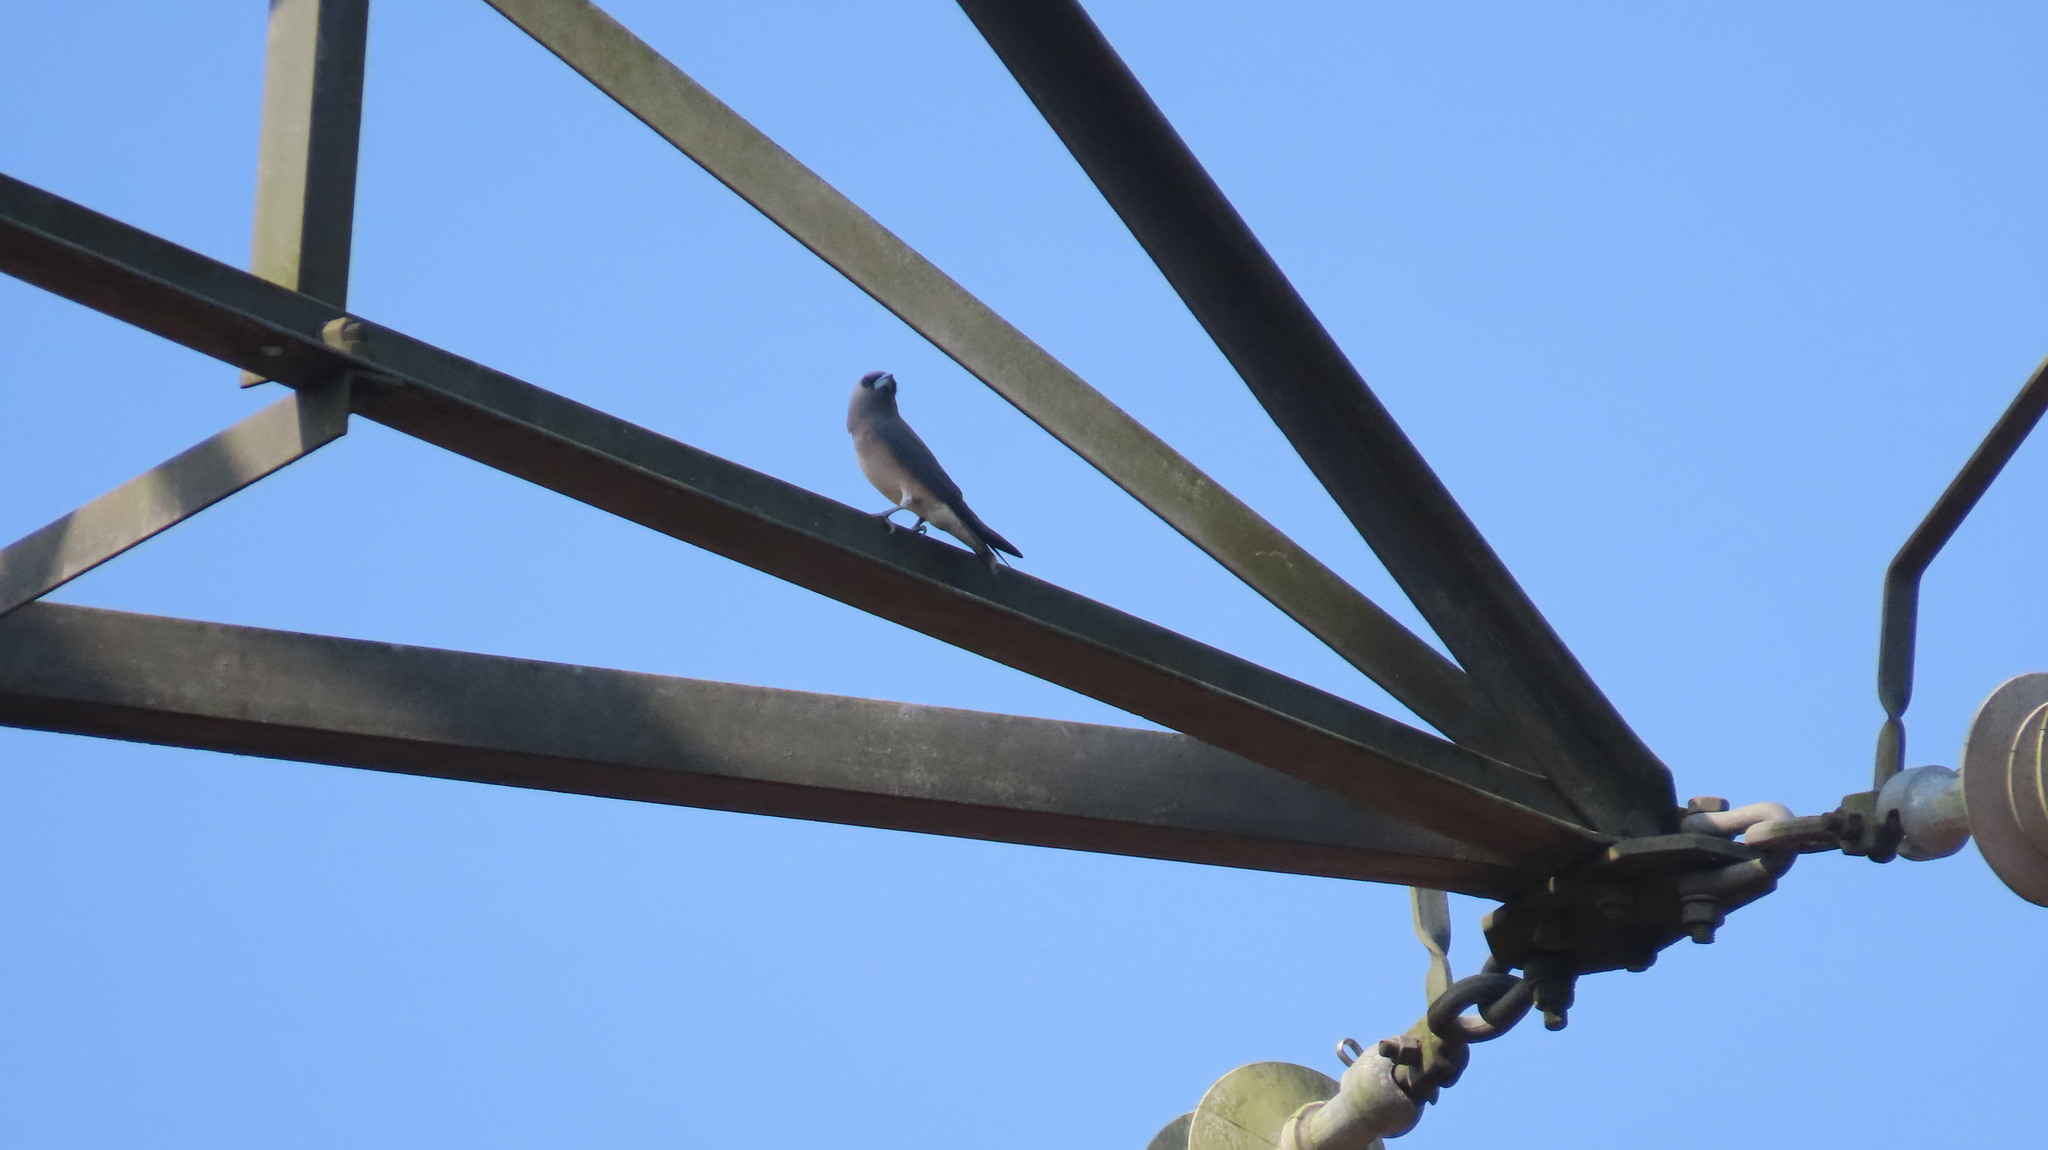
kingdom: Animalia
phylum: Chordata
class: Aves
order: Passeriformes
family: Artamidae
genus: Artamus
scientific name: Artamus fuscus
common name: Ashy woodswallow
